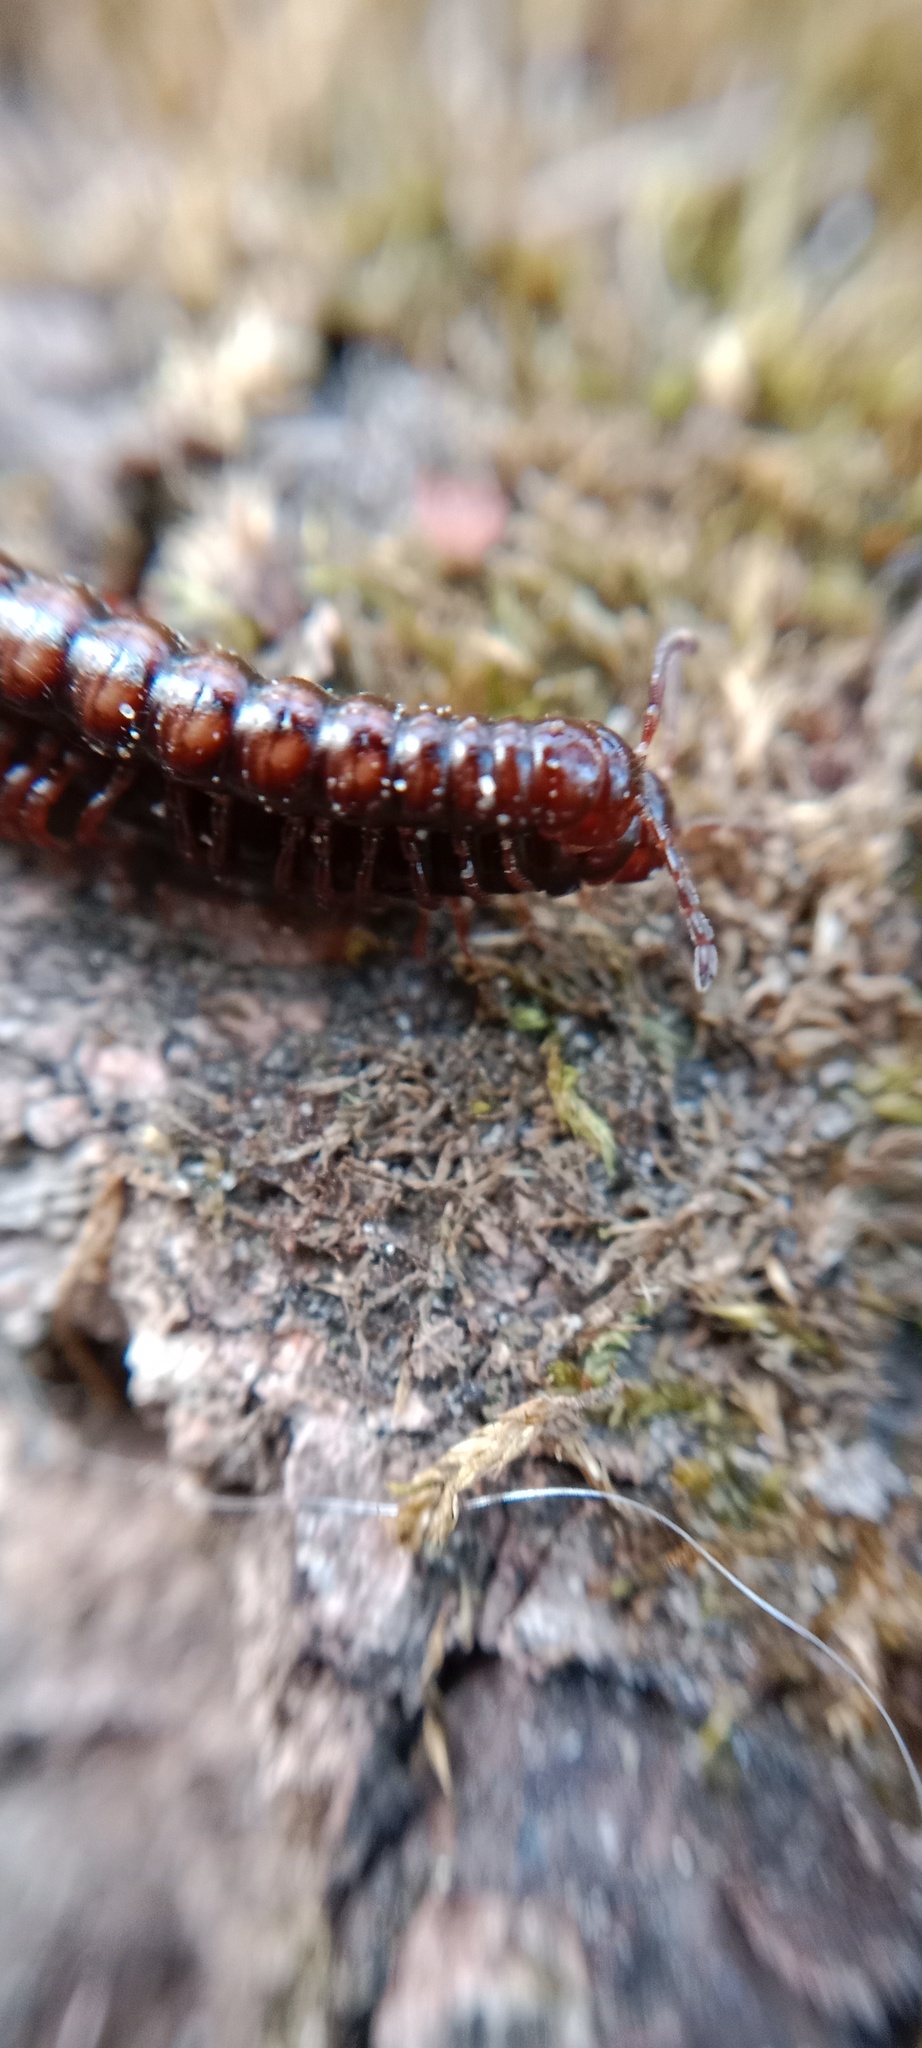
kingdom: Animalia
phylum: Arthropoda
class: Diplopoda
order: Polydesmida
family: Paradoxosomatidae
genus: Strongylosoma
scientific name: Strongylosoma stigmatosus
